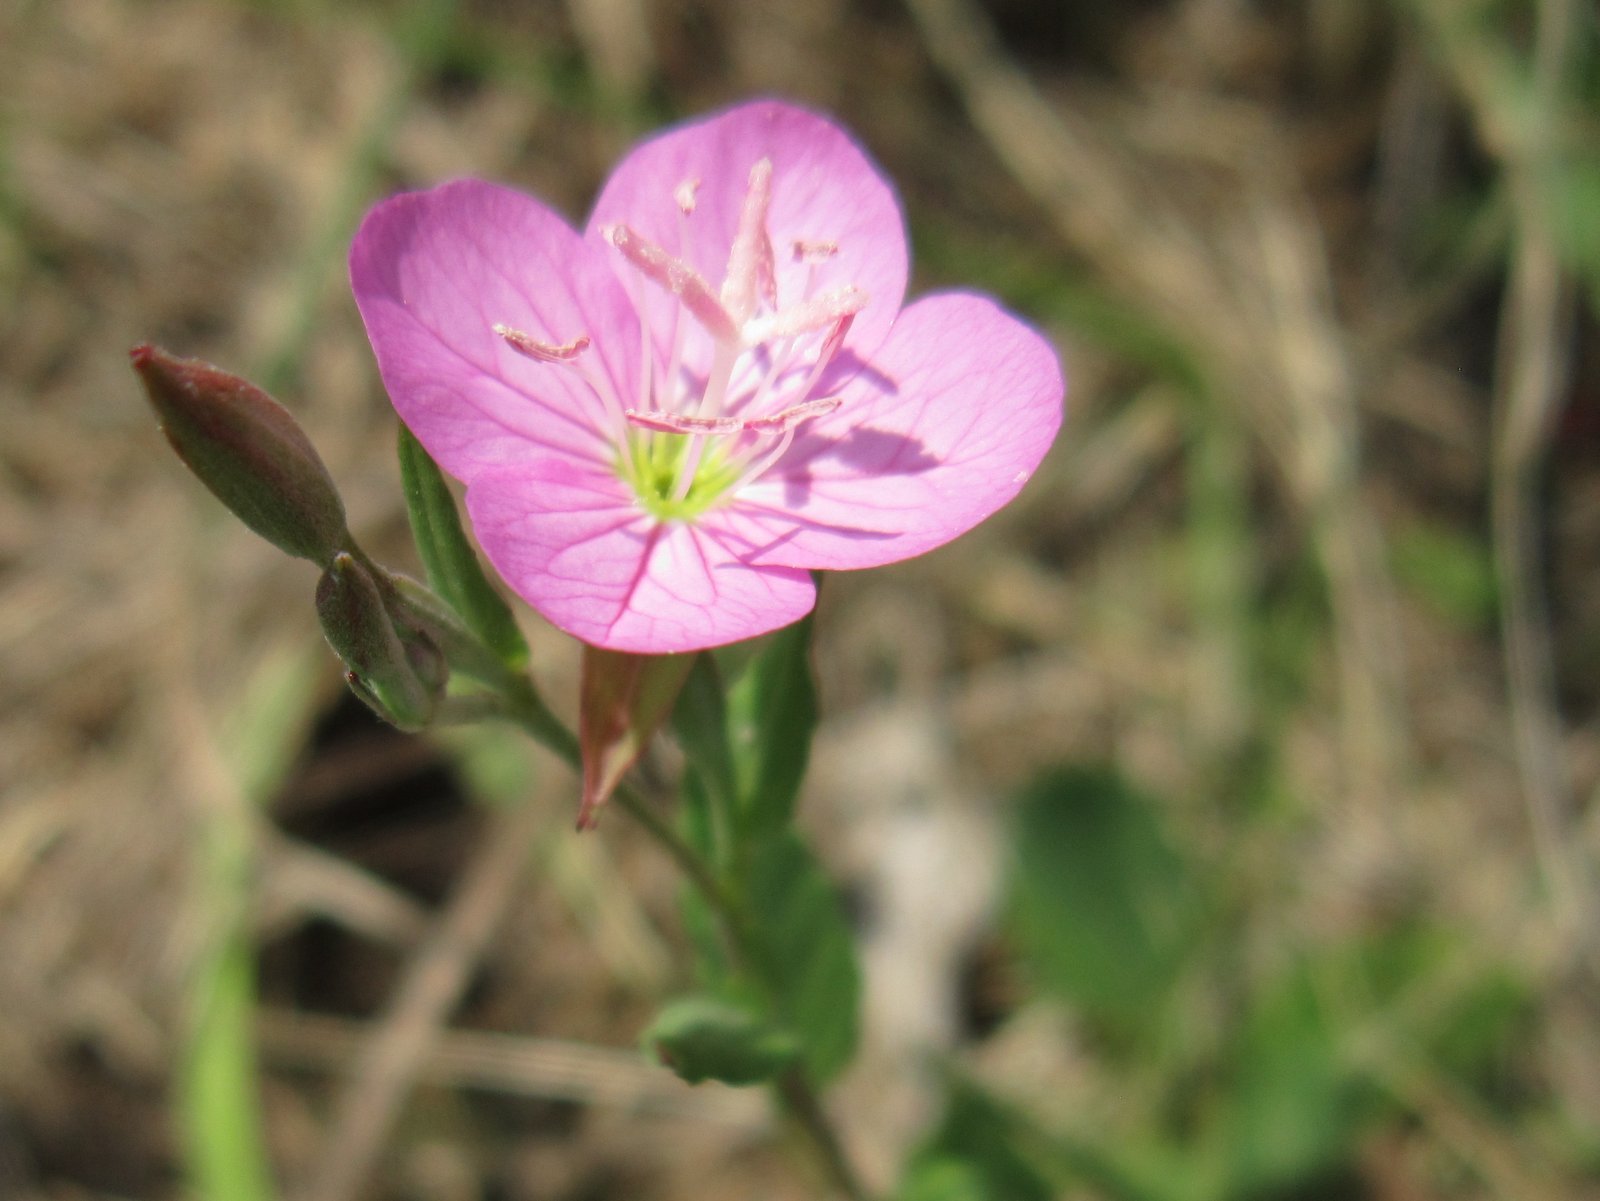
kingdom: Plantae
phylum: Tracheophyta
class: Magnoliopsida
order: Myrtales
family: Onagraceae
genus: Oenothera
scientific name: Oenothera rosea
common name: Rosy evening-primrose
